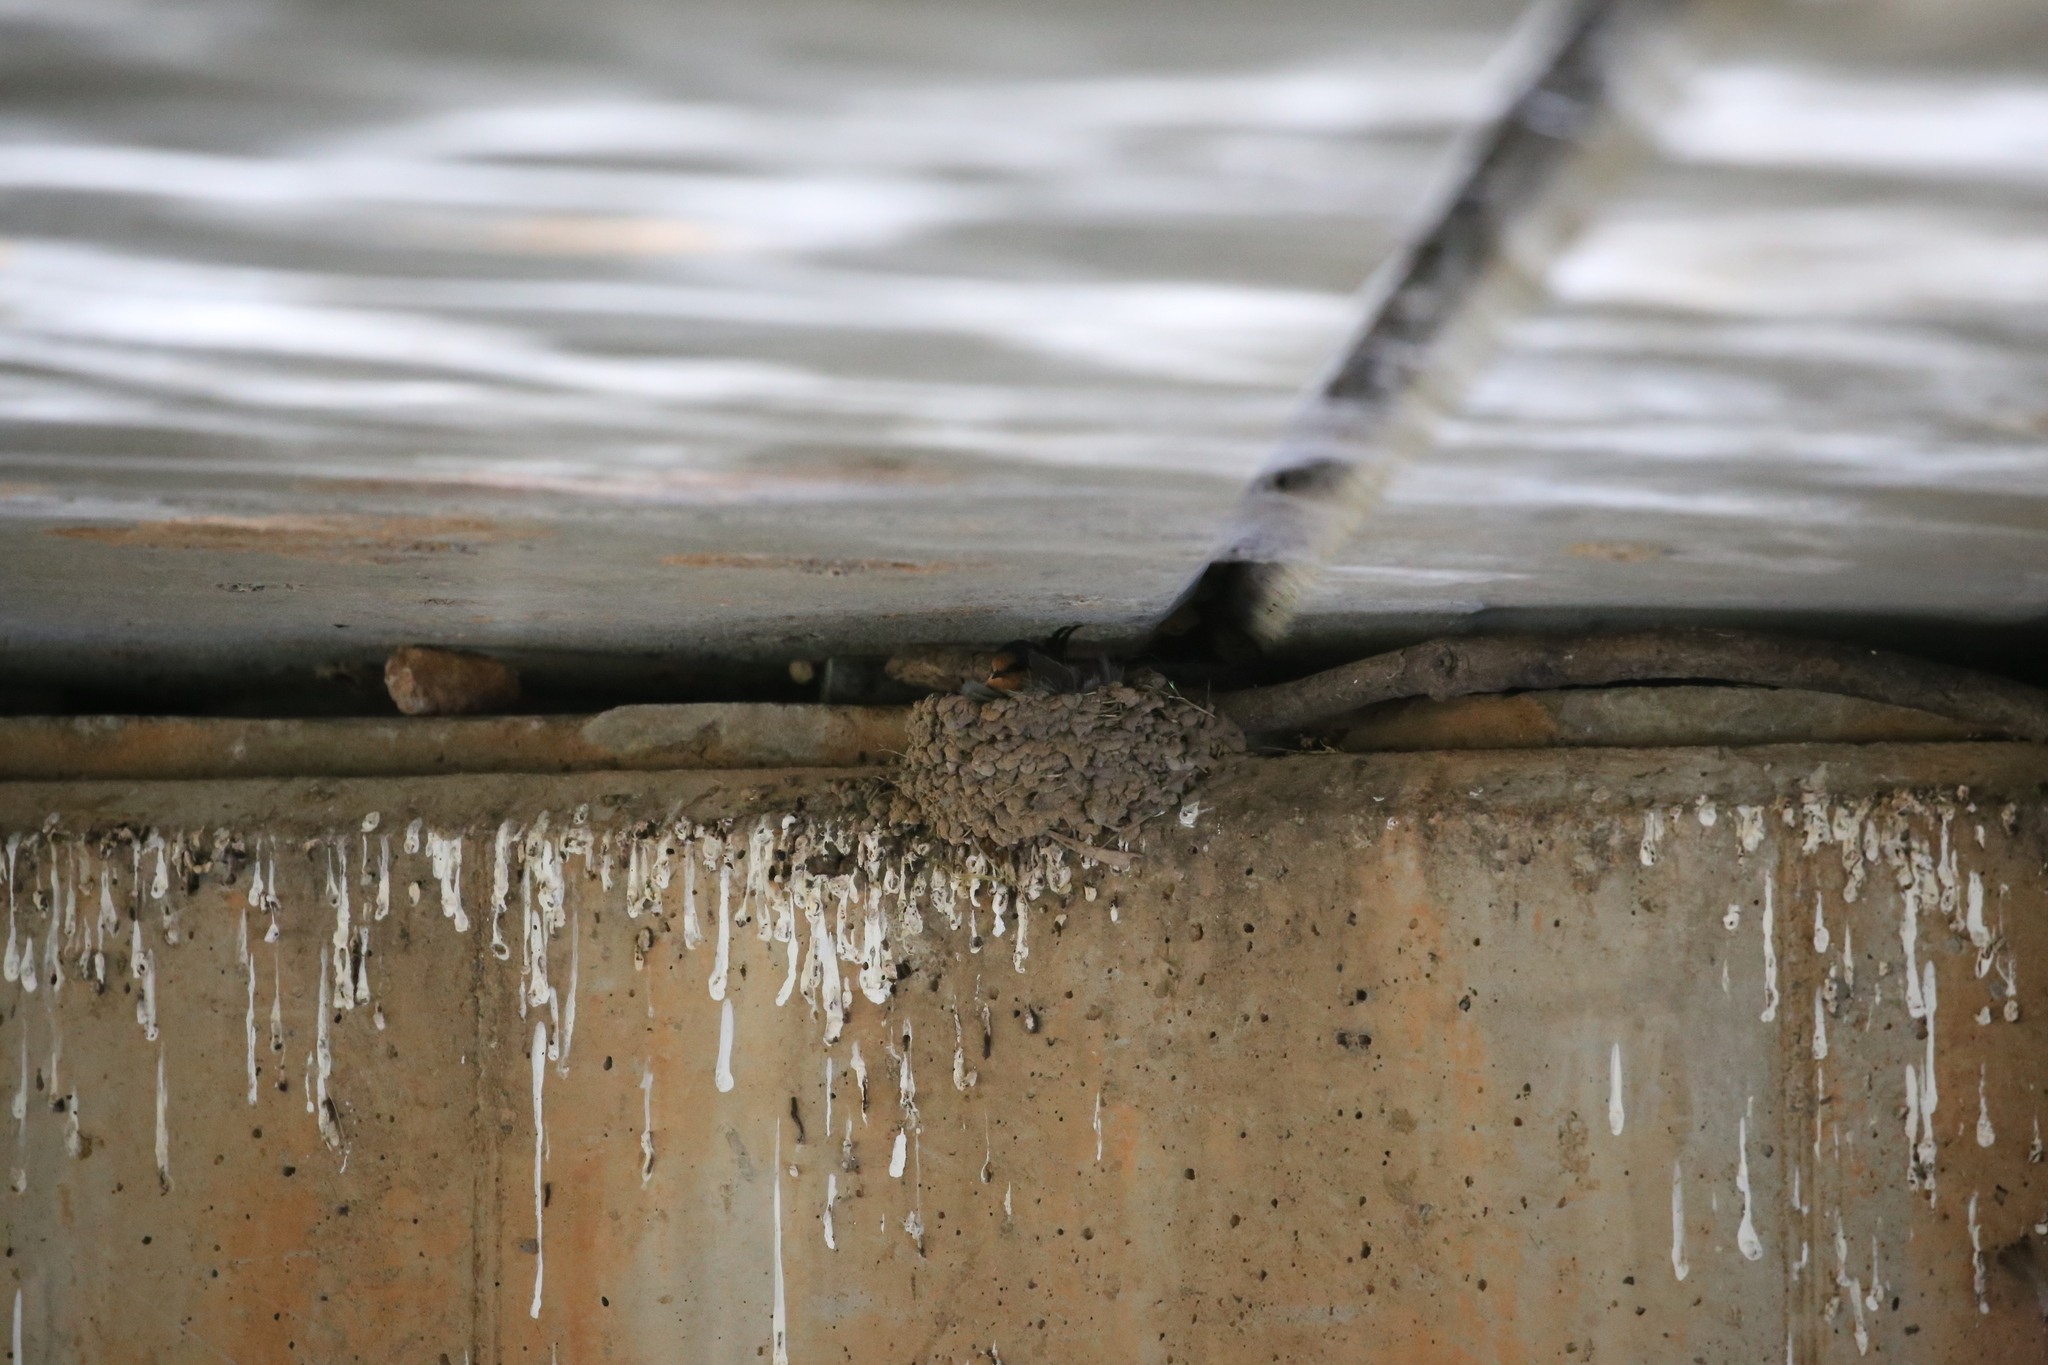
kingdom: Animalia
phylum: Chordata
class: Aves
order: Passeriformes
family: Hirundinidae
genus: Hirundo
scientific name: Hirundo neoxena
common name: Welcome swallow
